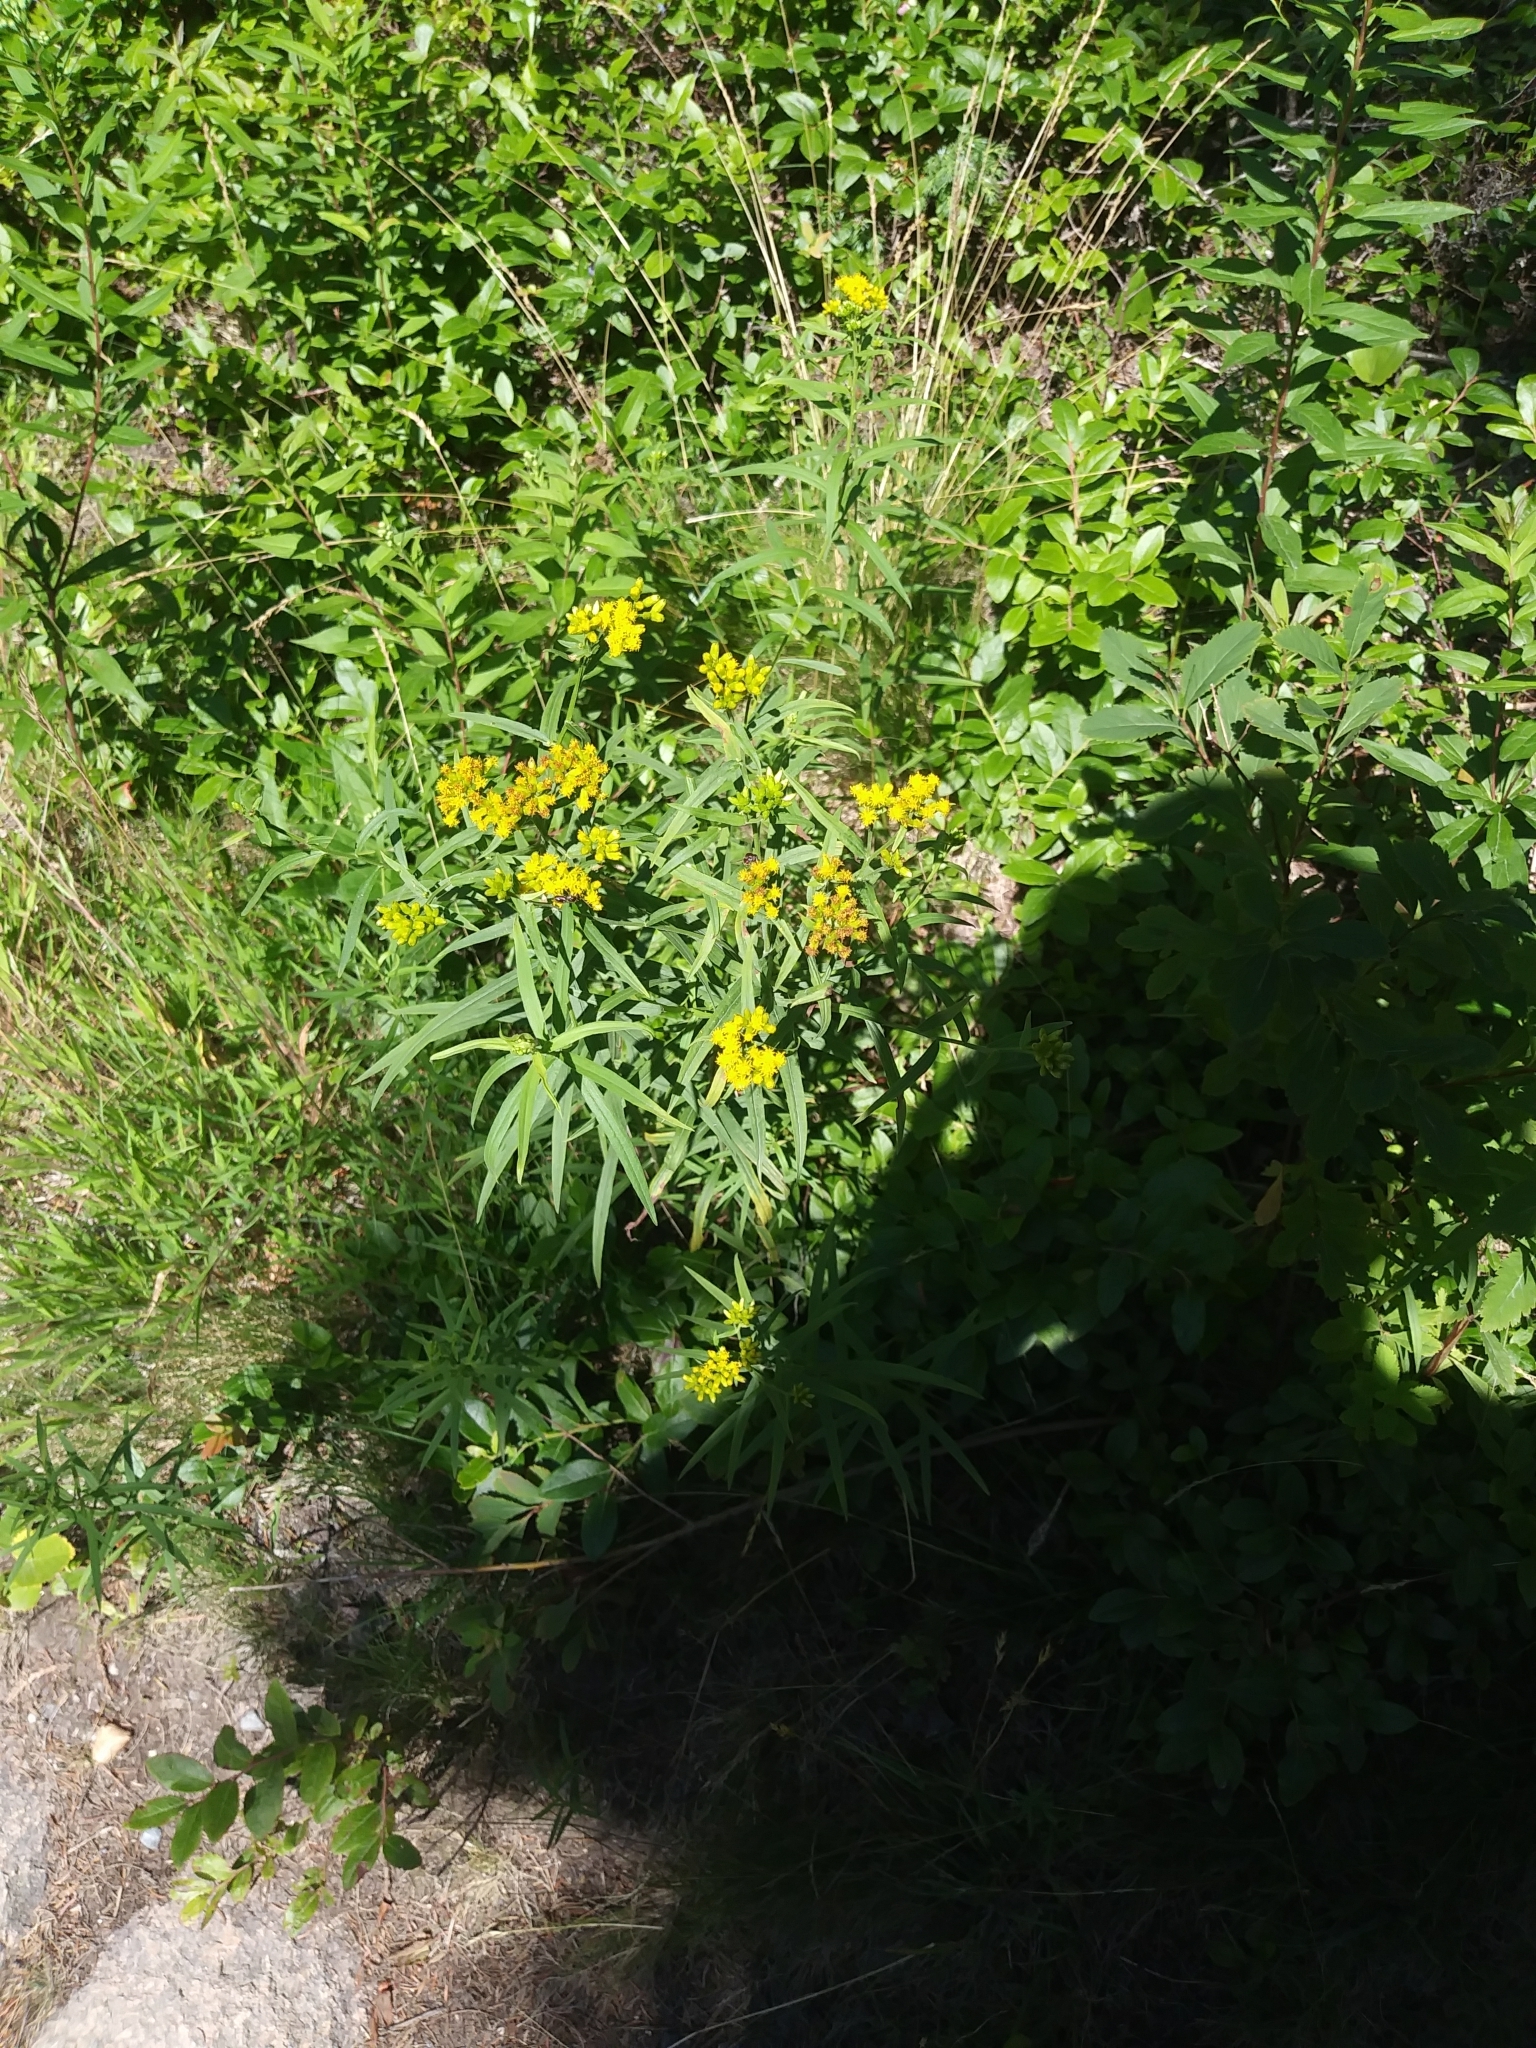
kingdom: Plantae
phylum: Tracheophyta
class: Magnoliopsida
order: Asterales
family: Asteraceae
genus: Euthamia
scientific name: Euthamia graminifolia
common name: Common goldentop
